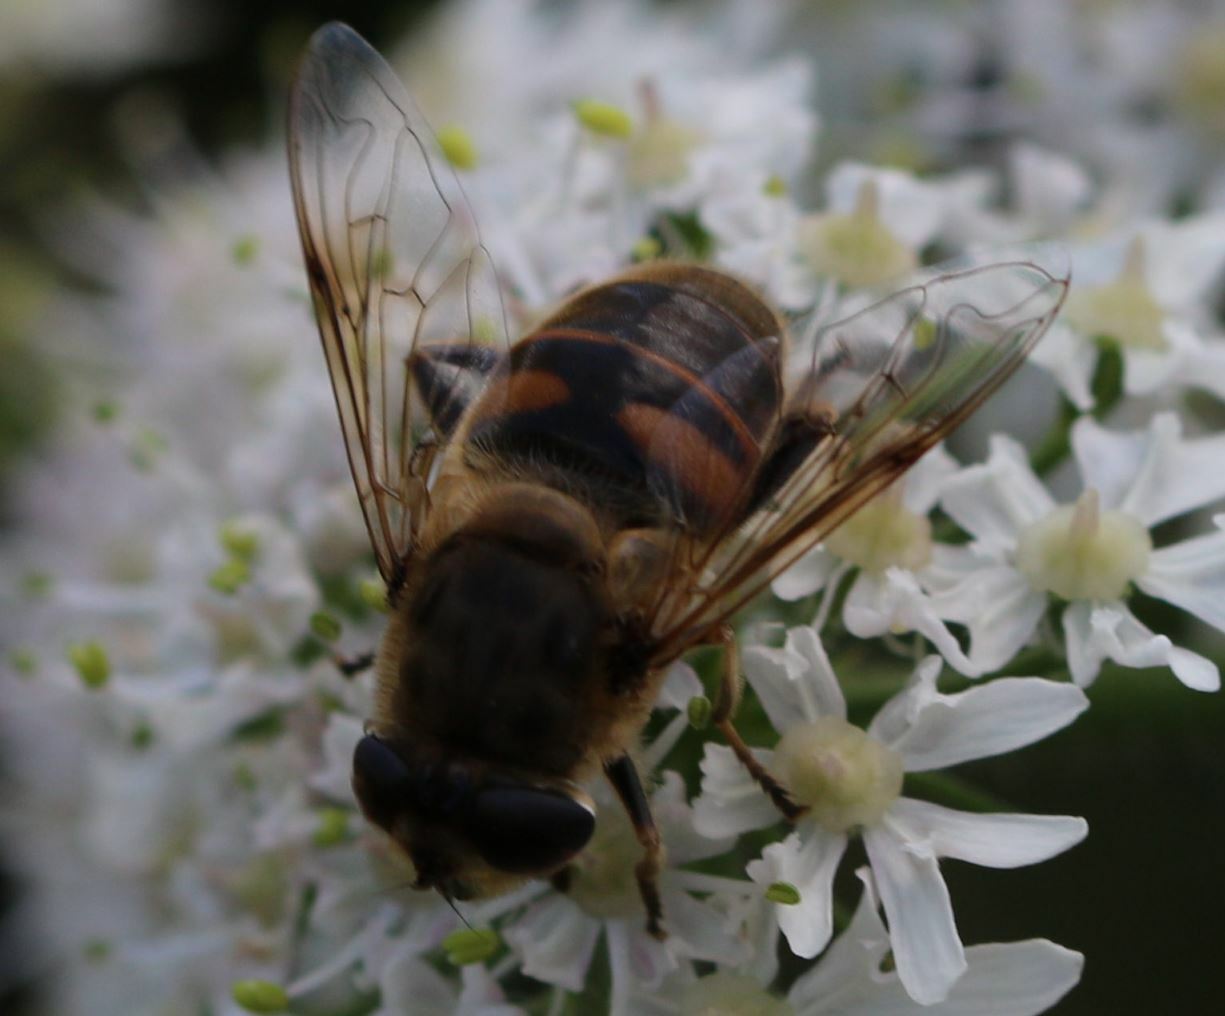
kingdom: Animalia
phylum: Arthropoda
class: Insecta
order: Diptera
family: Syrphidae
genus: Eristalis
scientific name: Eristalis tenax
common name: Drone fly
